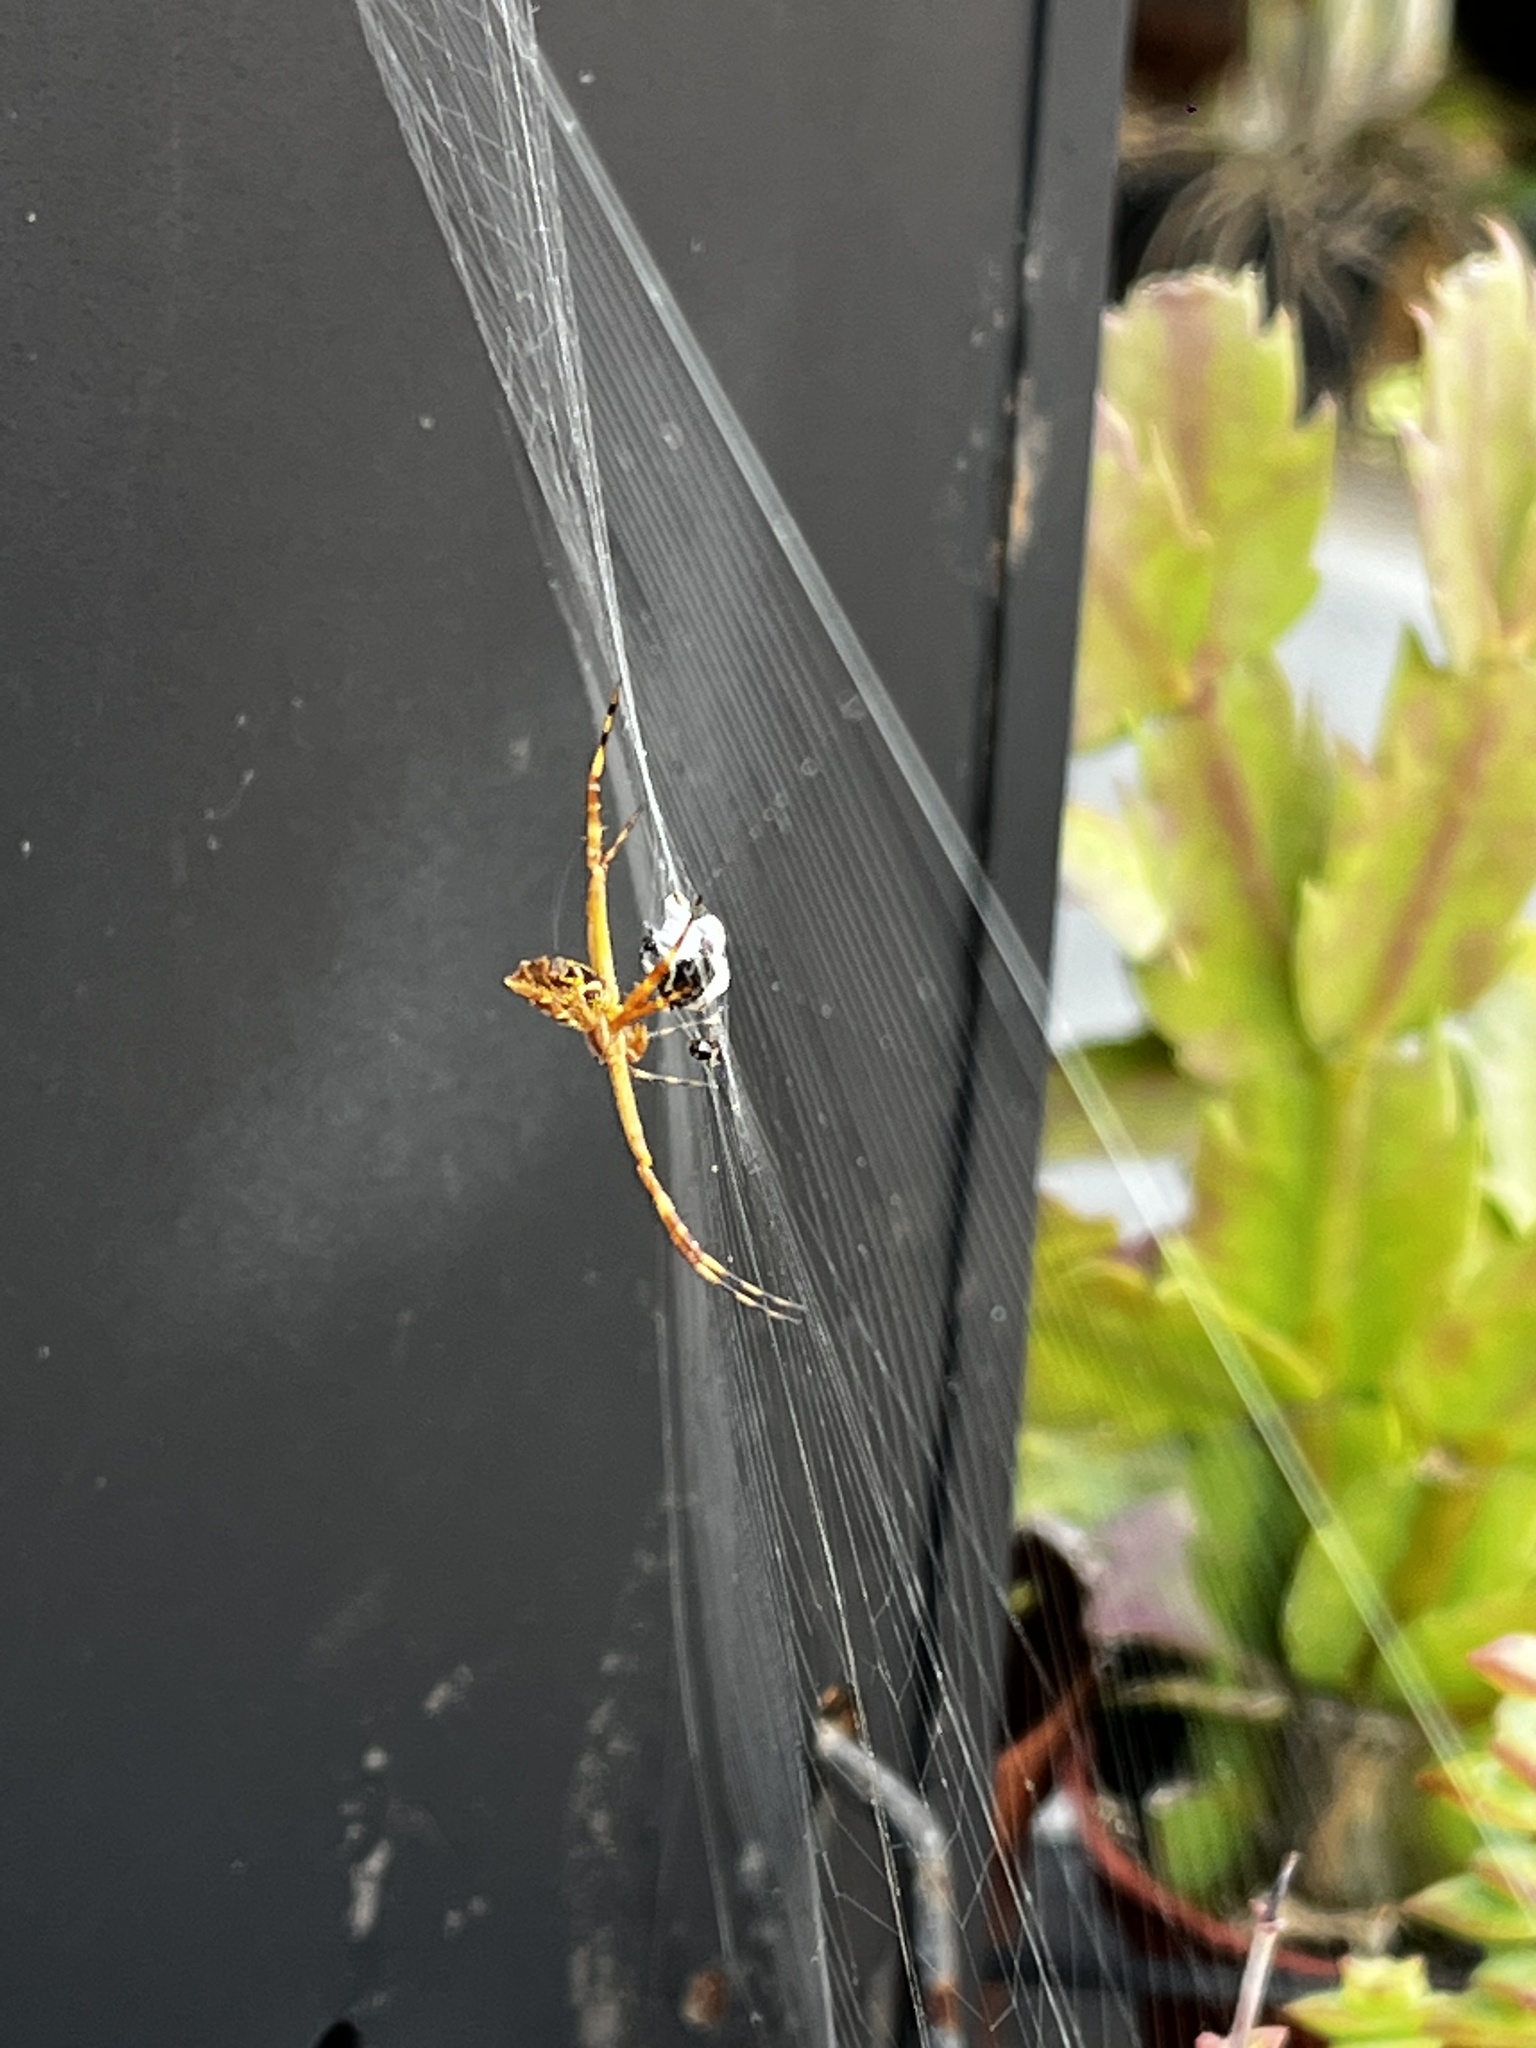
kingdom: Animalia
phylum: Arthropoda
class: Arachnida
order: Araneae
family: Araneidae
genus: Argiope
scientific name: Argiope argentata
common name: Orb weavers
